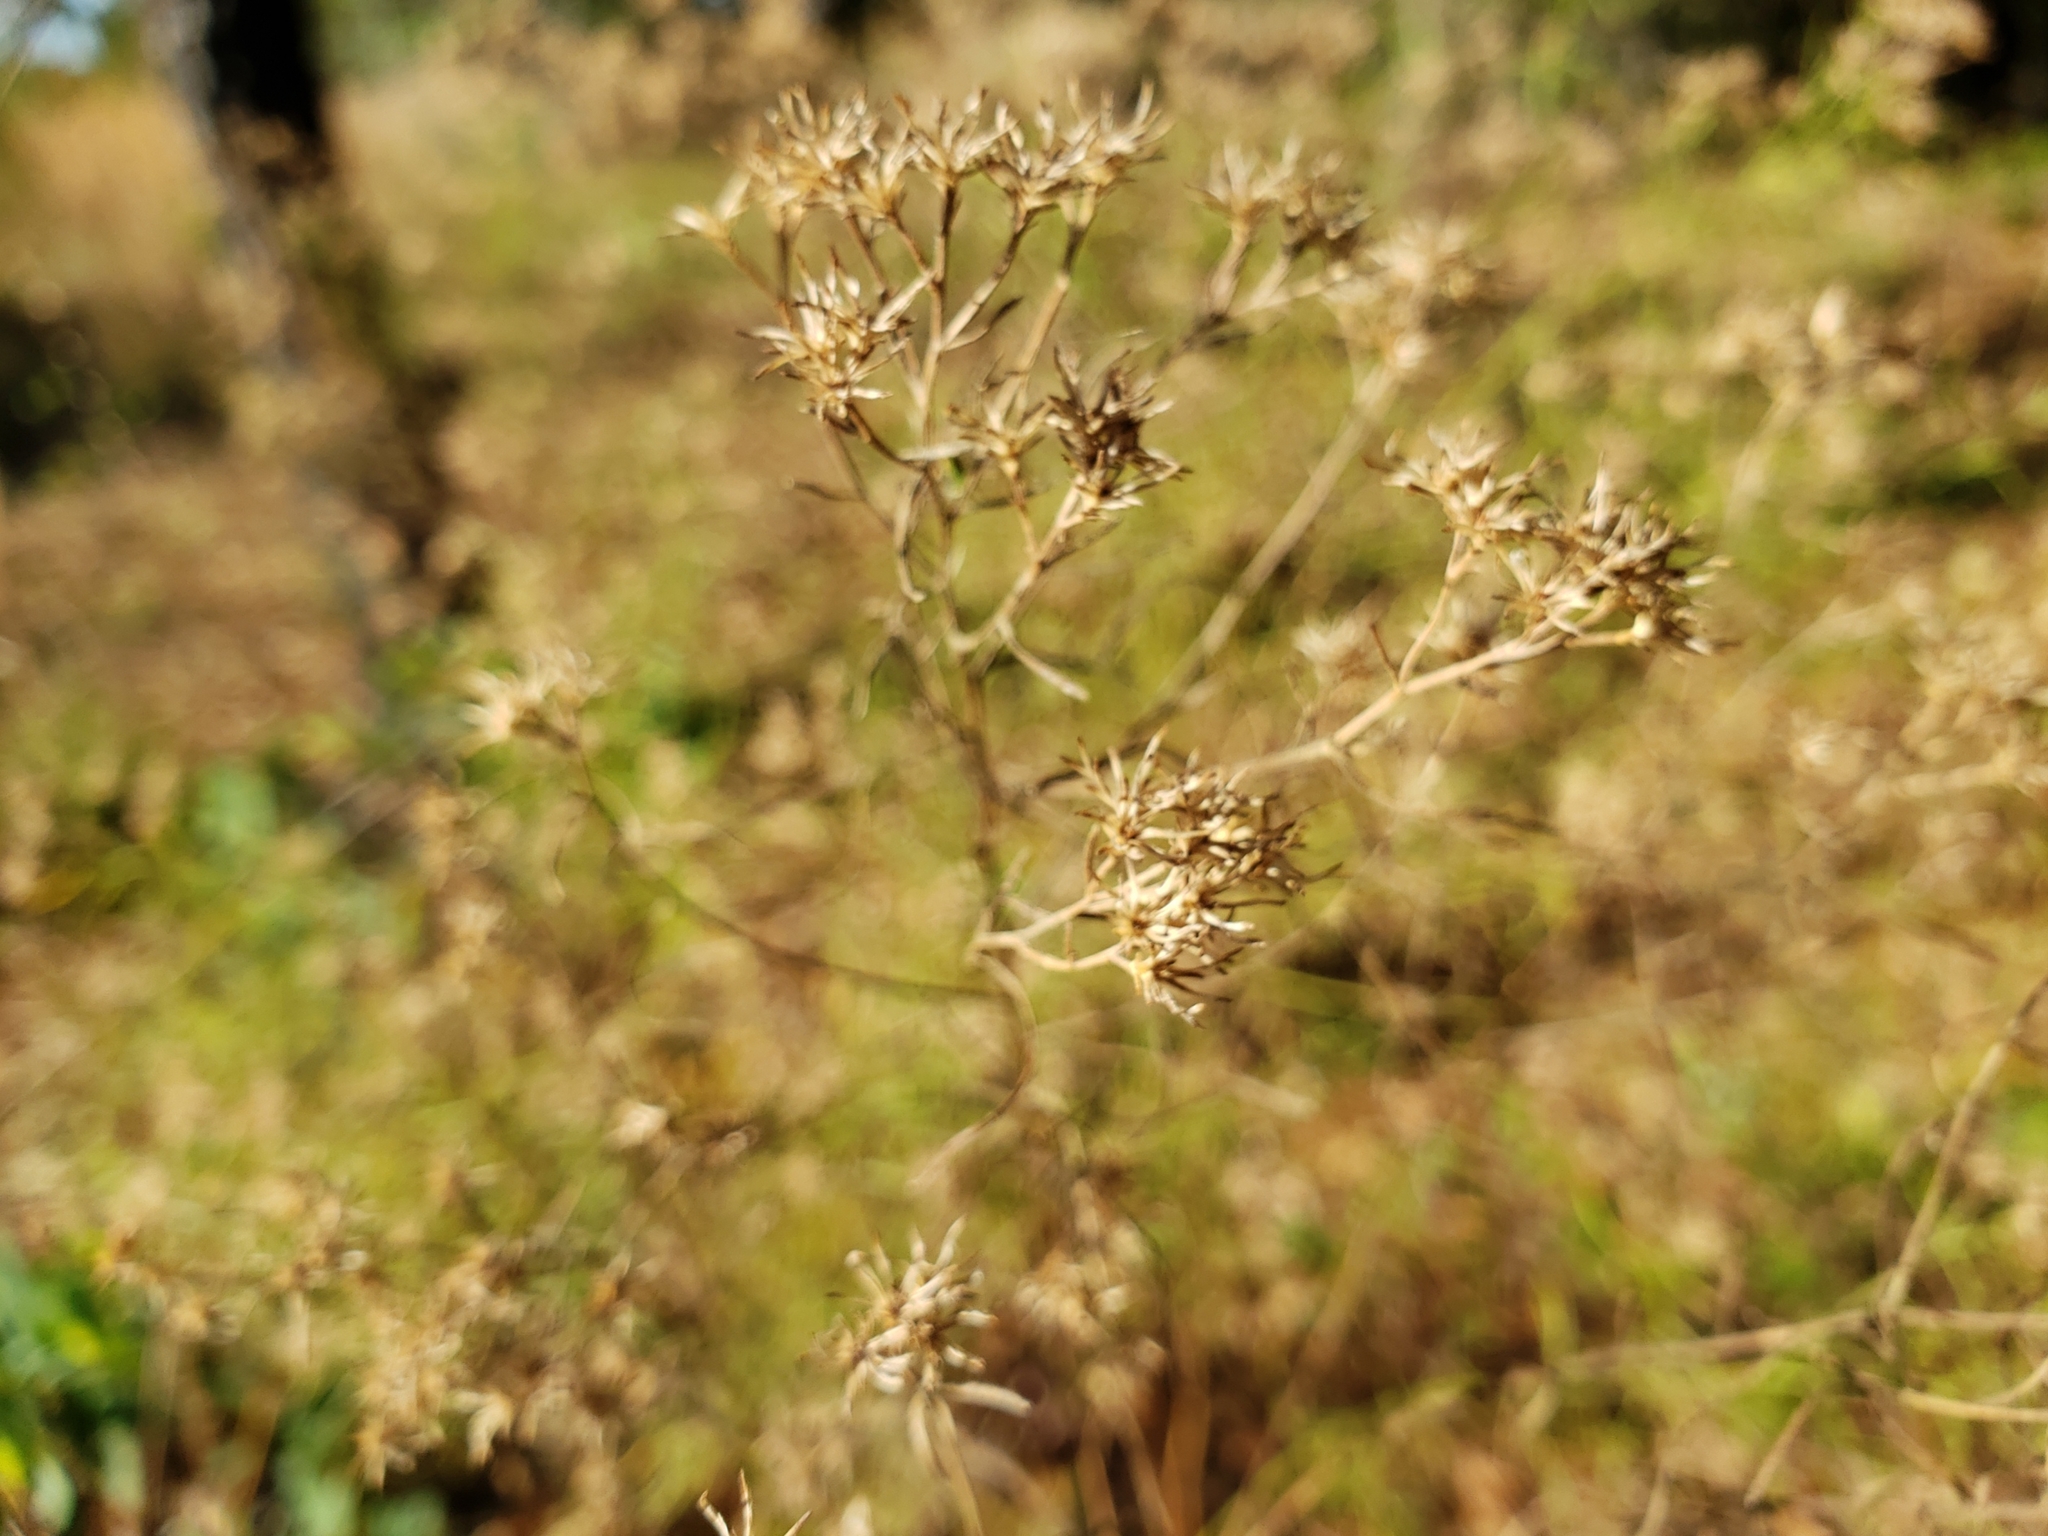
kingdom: Plantae
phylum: Tracheophyta
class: Magnoliopsida
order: Asterales
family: Asteraceae
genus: Euthamia
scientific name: Euthamia caroliniana
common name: Coastal plain goldentop
